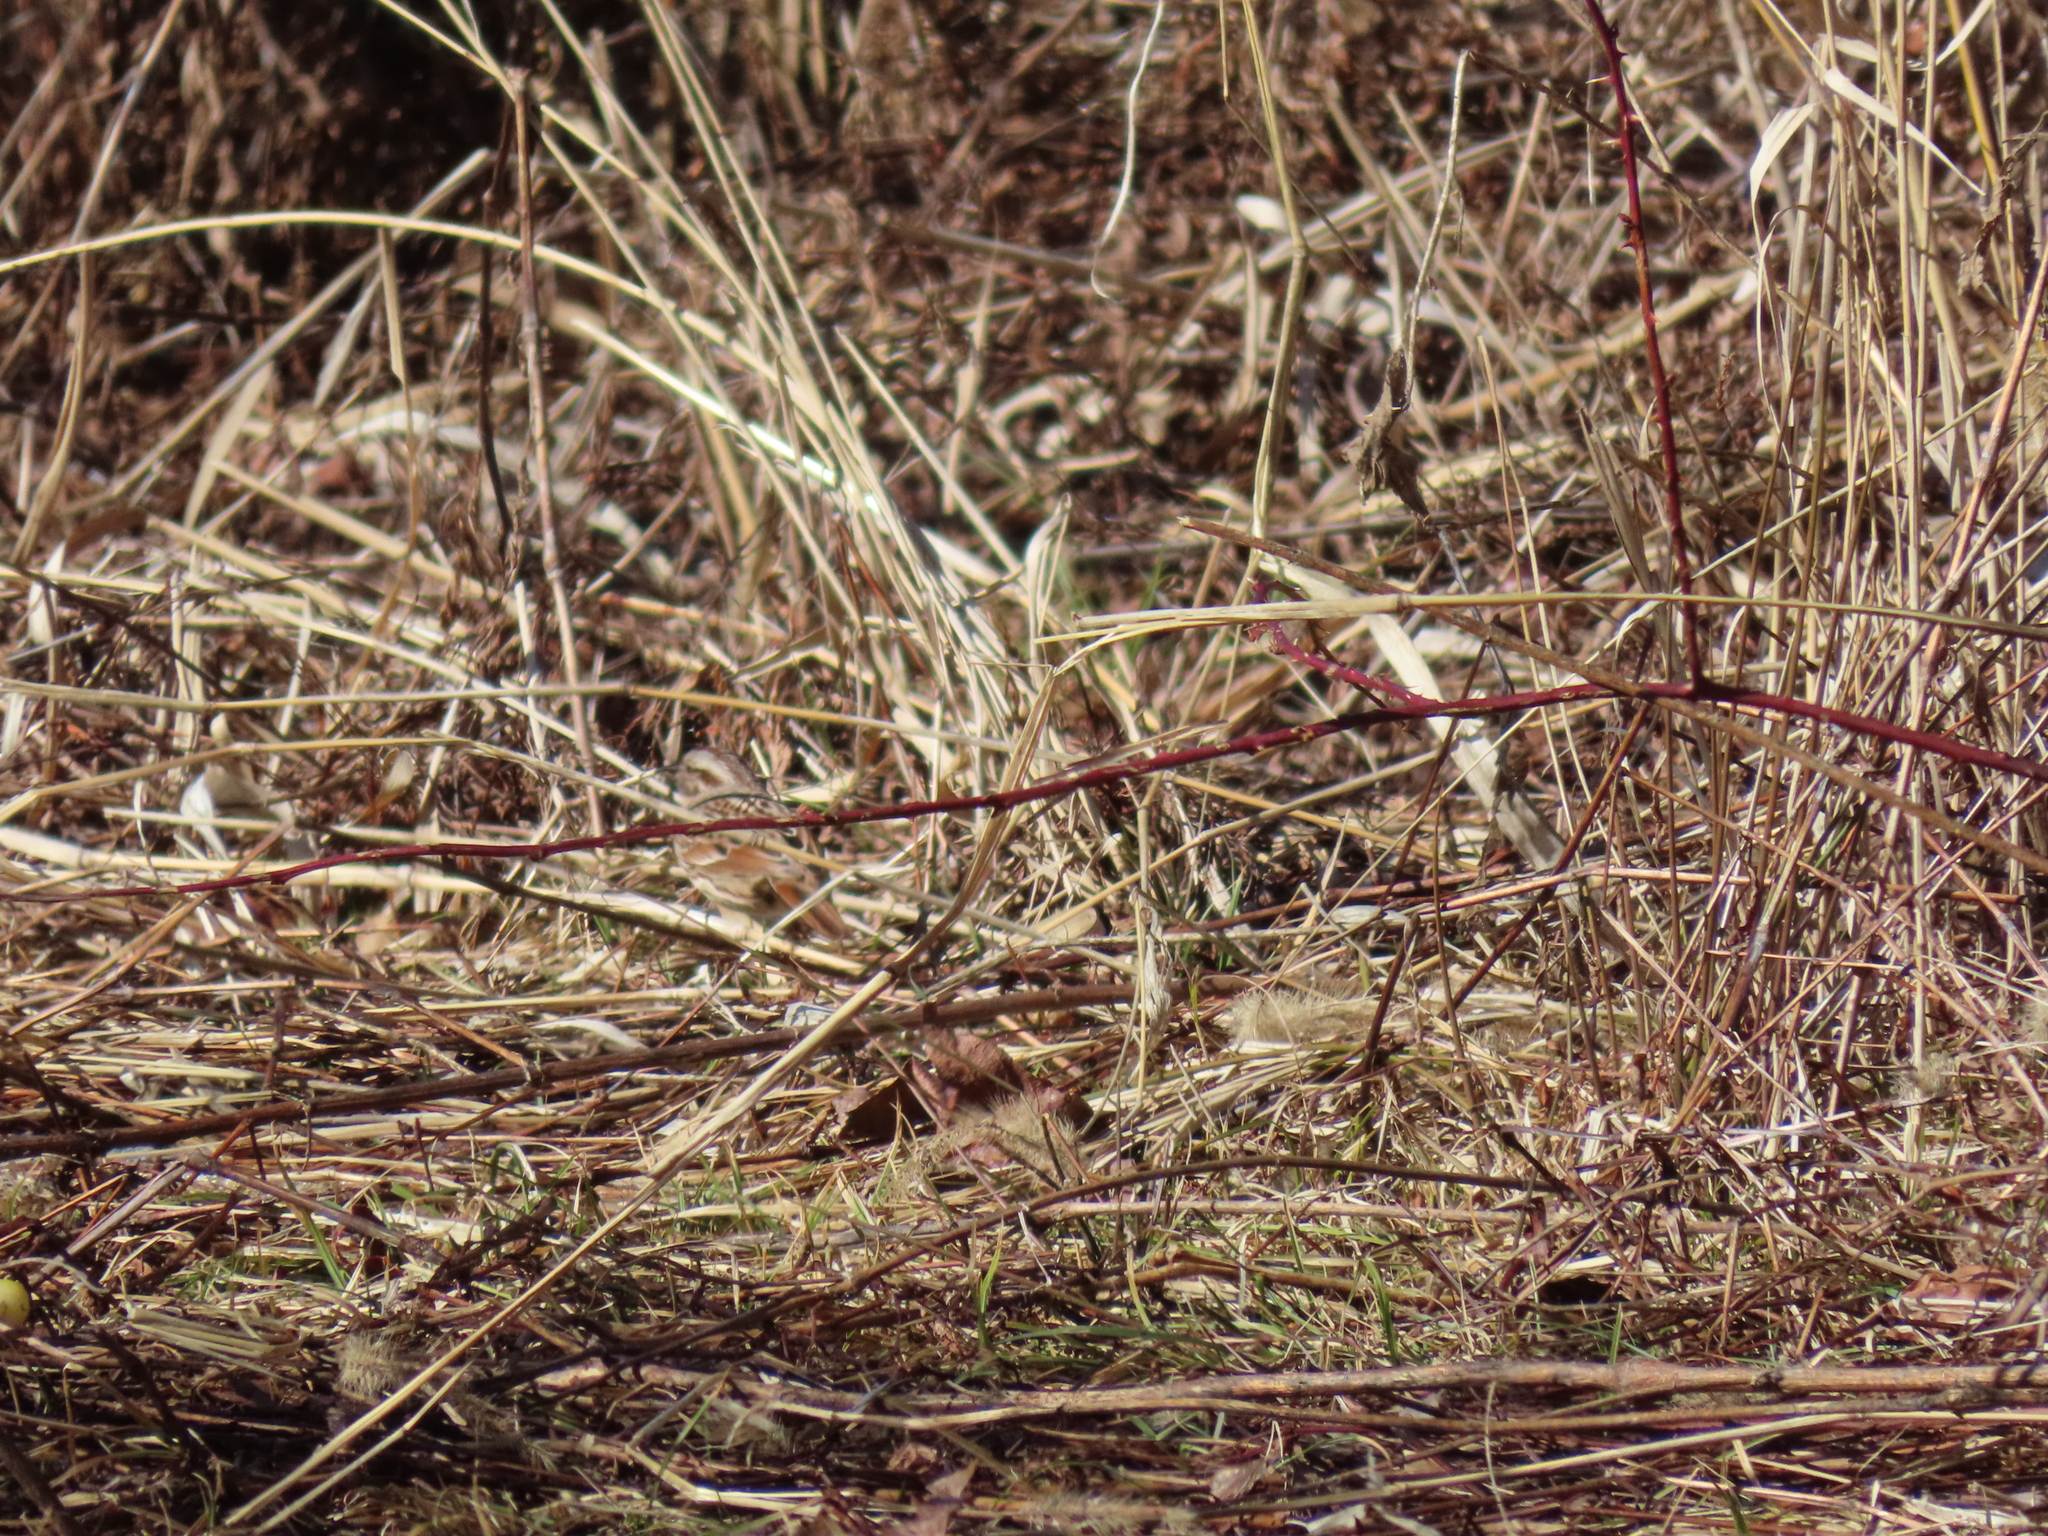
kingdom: Animalia
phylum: Chordata
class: Aves
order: Passeriformes
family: Passerellidae
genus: Melospiza
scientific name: Melospiza melodia
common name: Song sparrow
